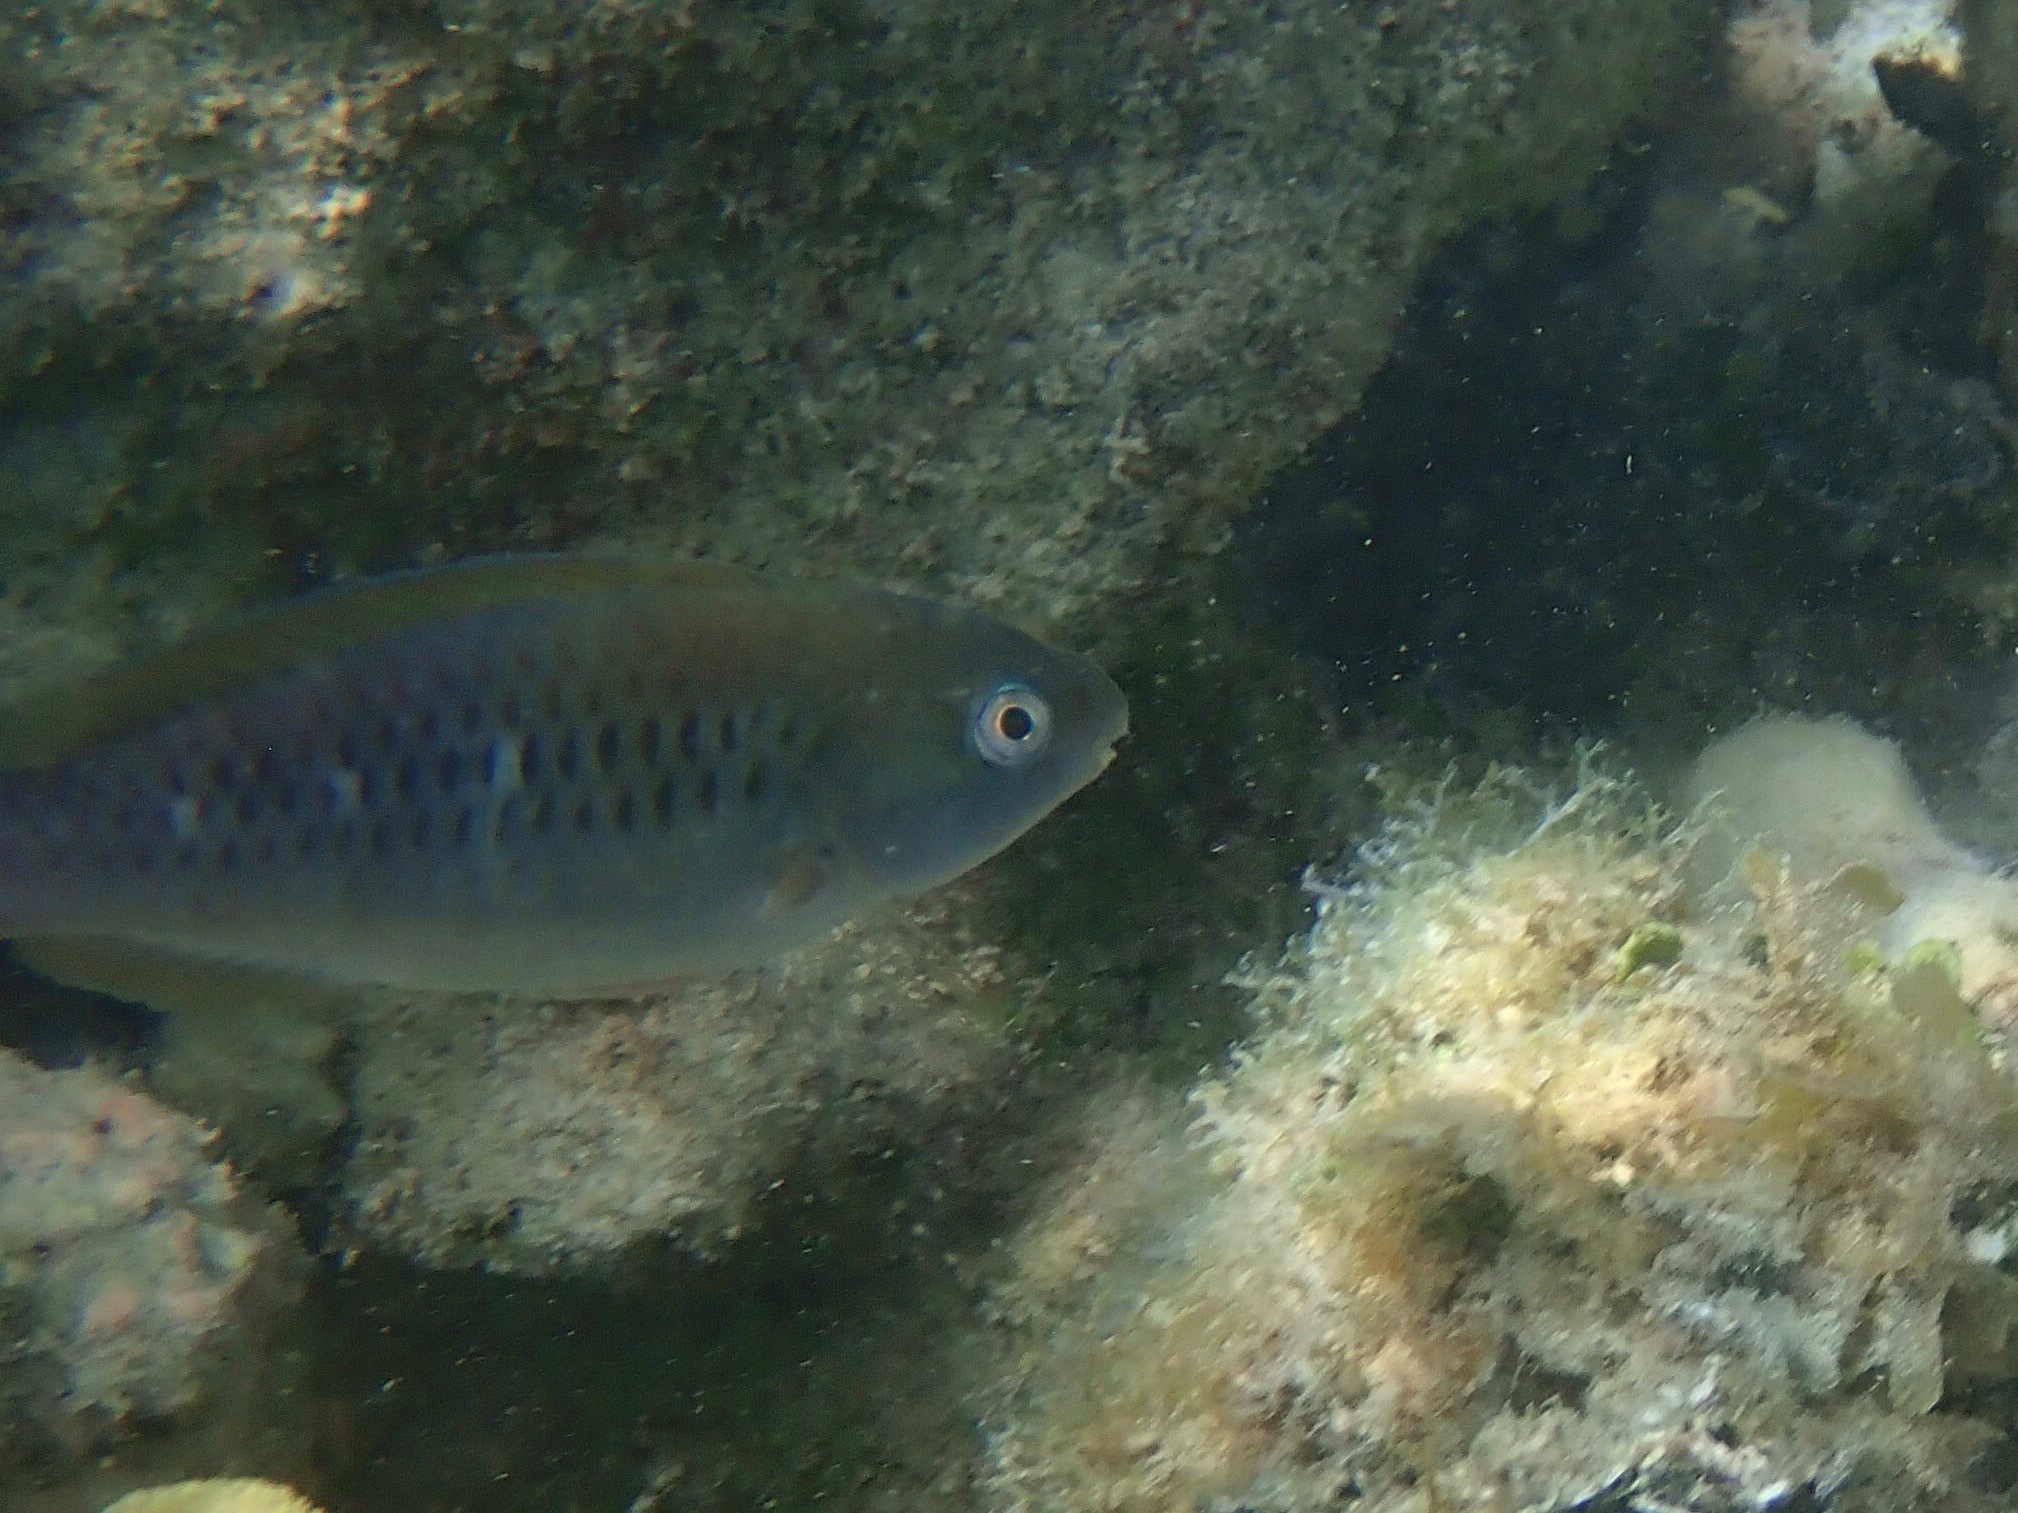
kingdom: Animalia
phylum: Chordata
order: Perciformes
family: Scaridae
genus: Scarus
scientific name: Scarus iseri
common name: Striped parrotfish
